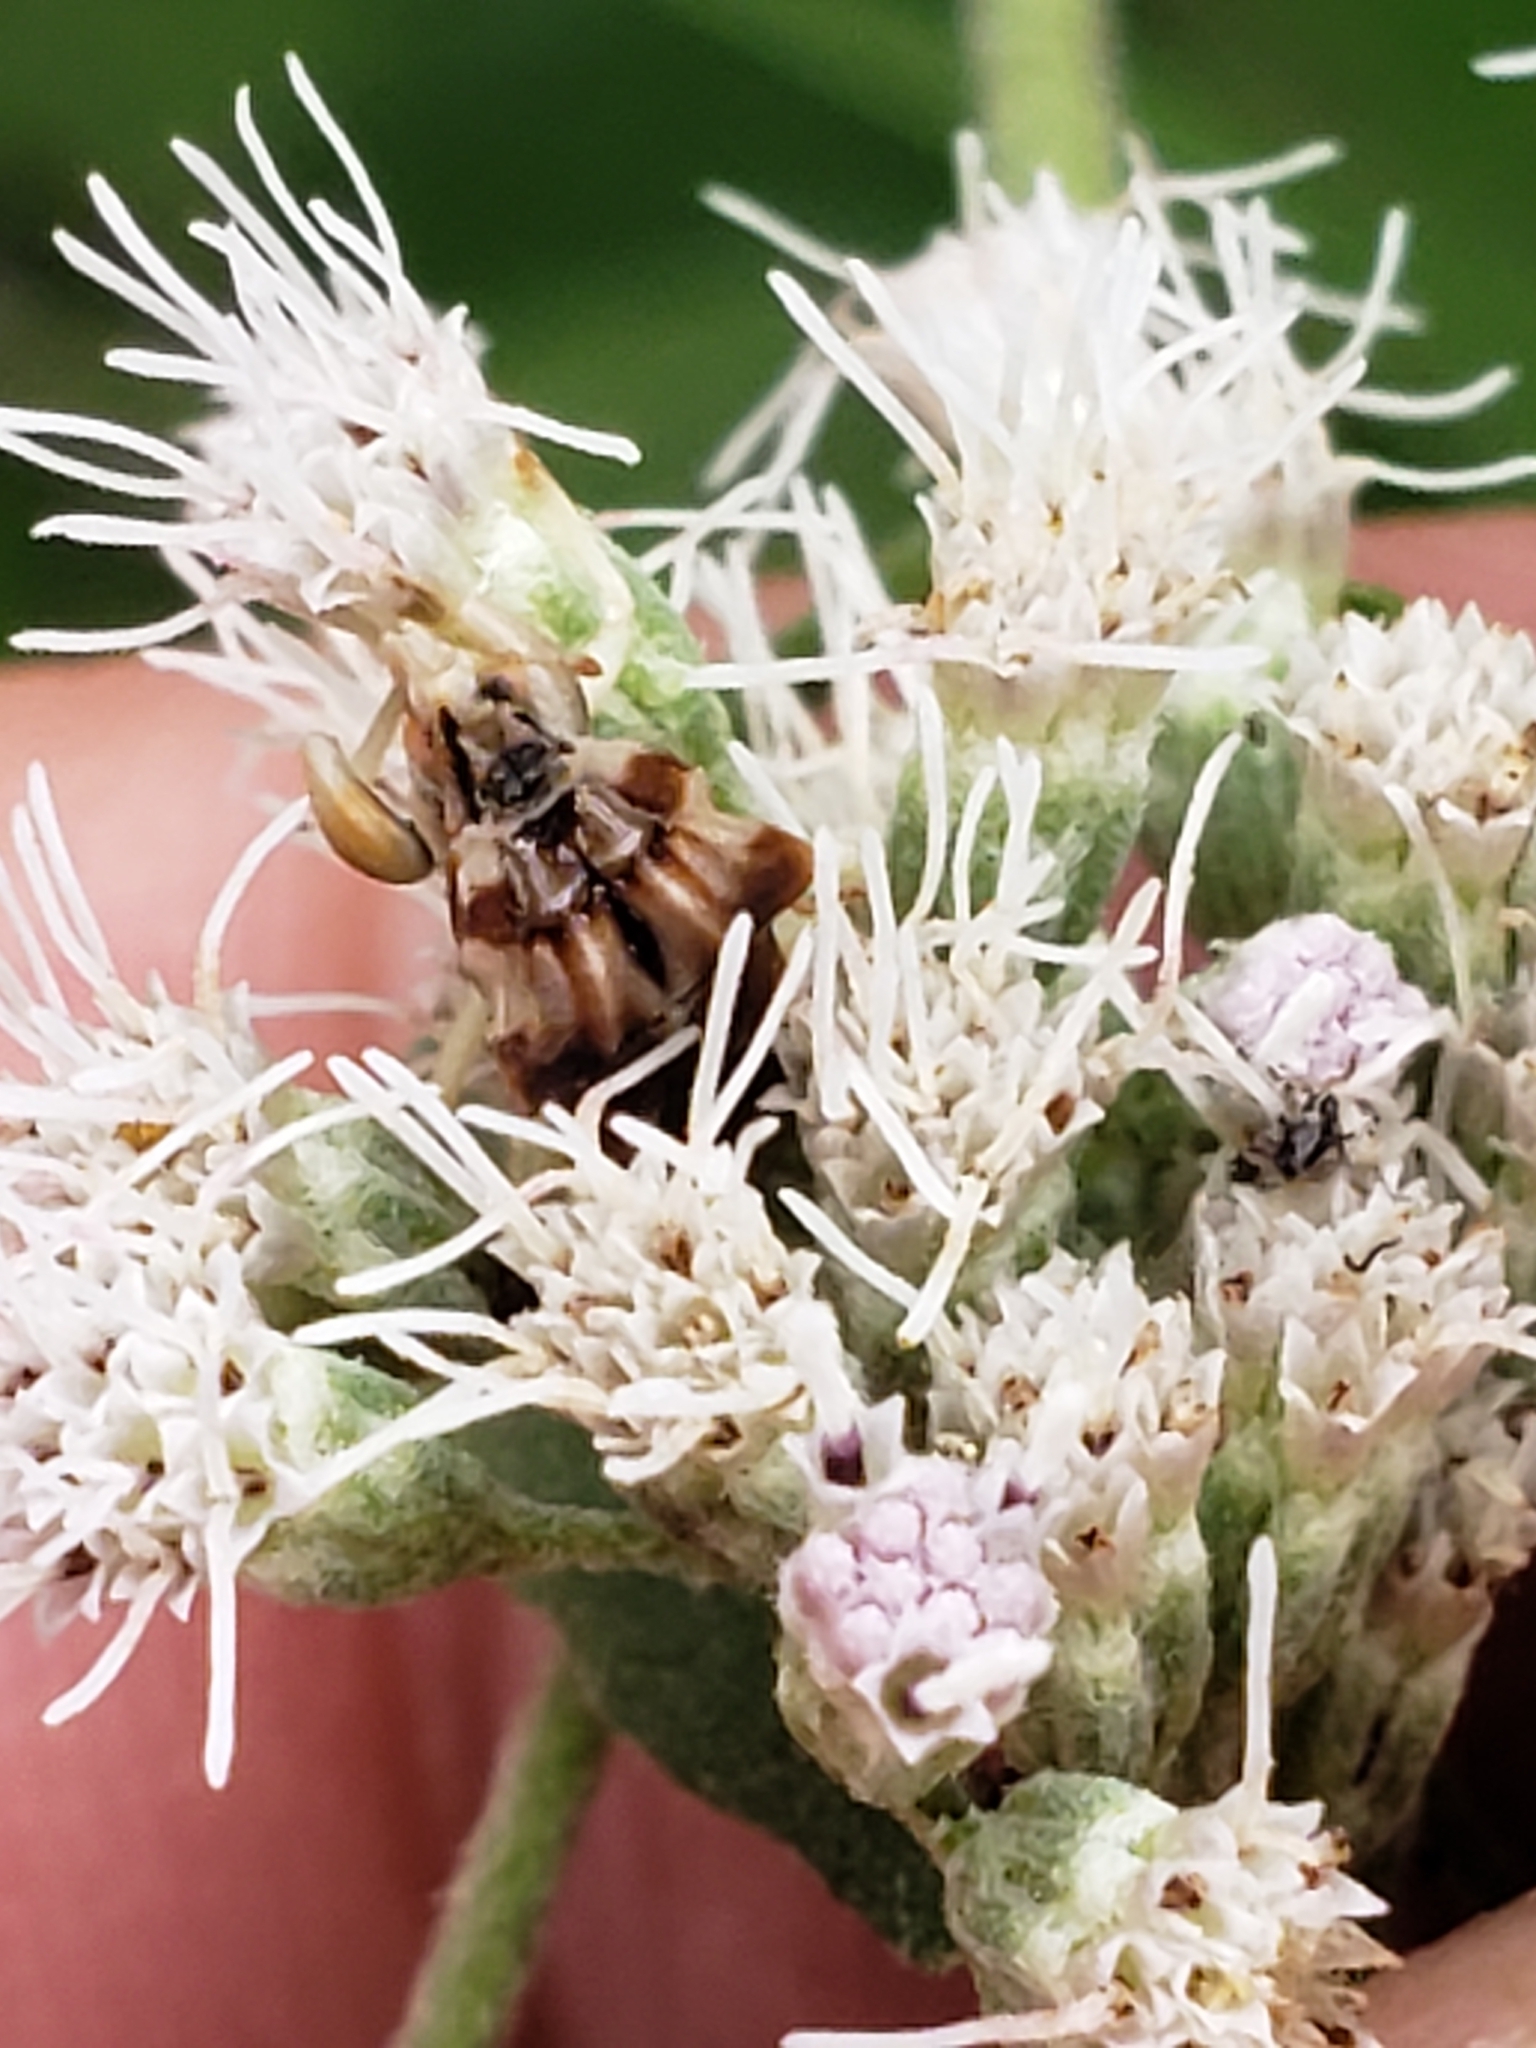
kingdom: Animalia
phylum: Arthropoda
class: Insecta
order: Hemiptera
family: Reduviidae
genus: Phymata
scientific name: Phymata fasciata
